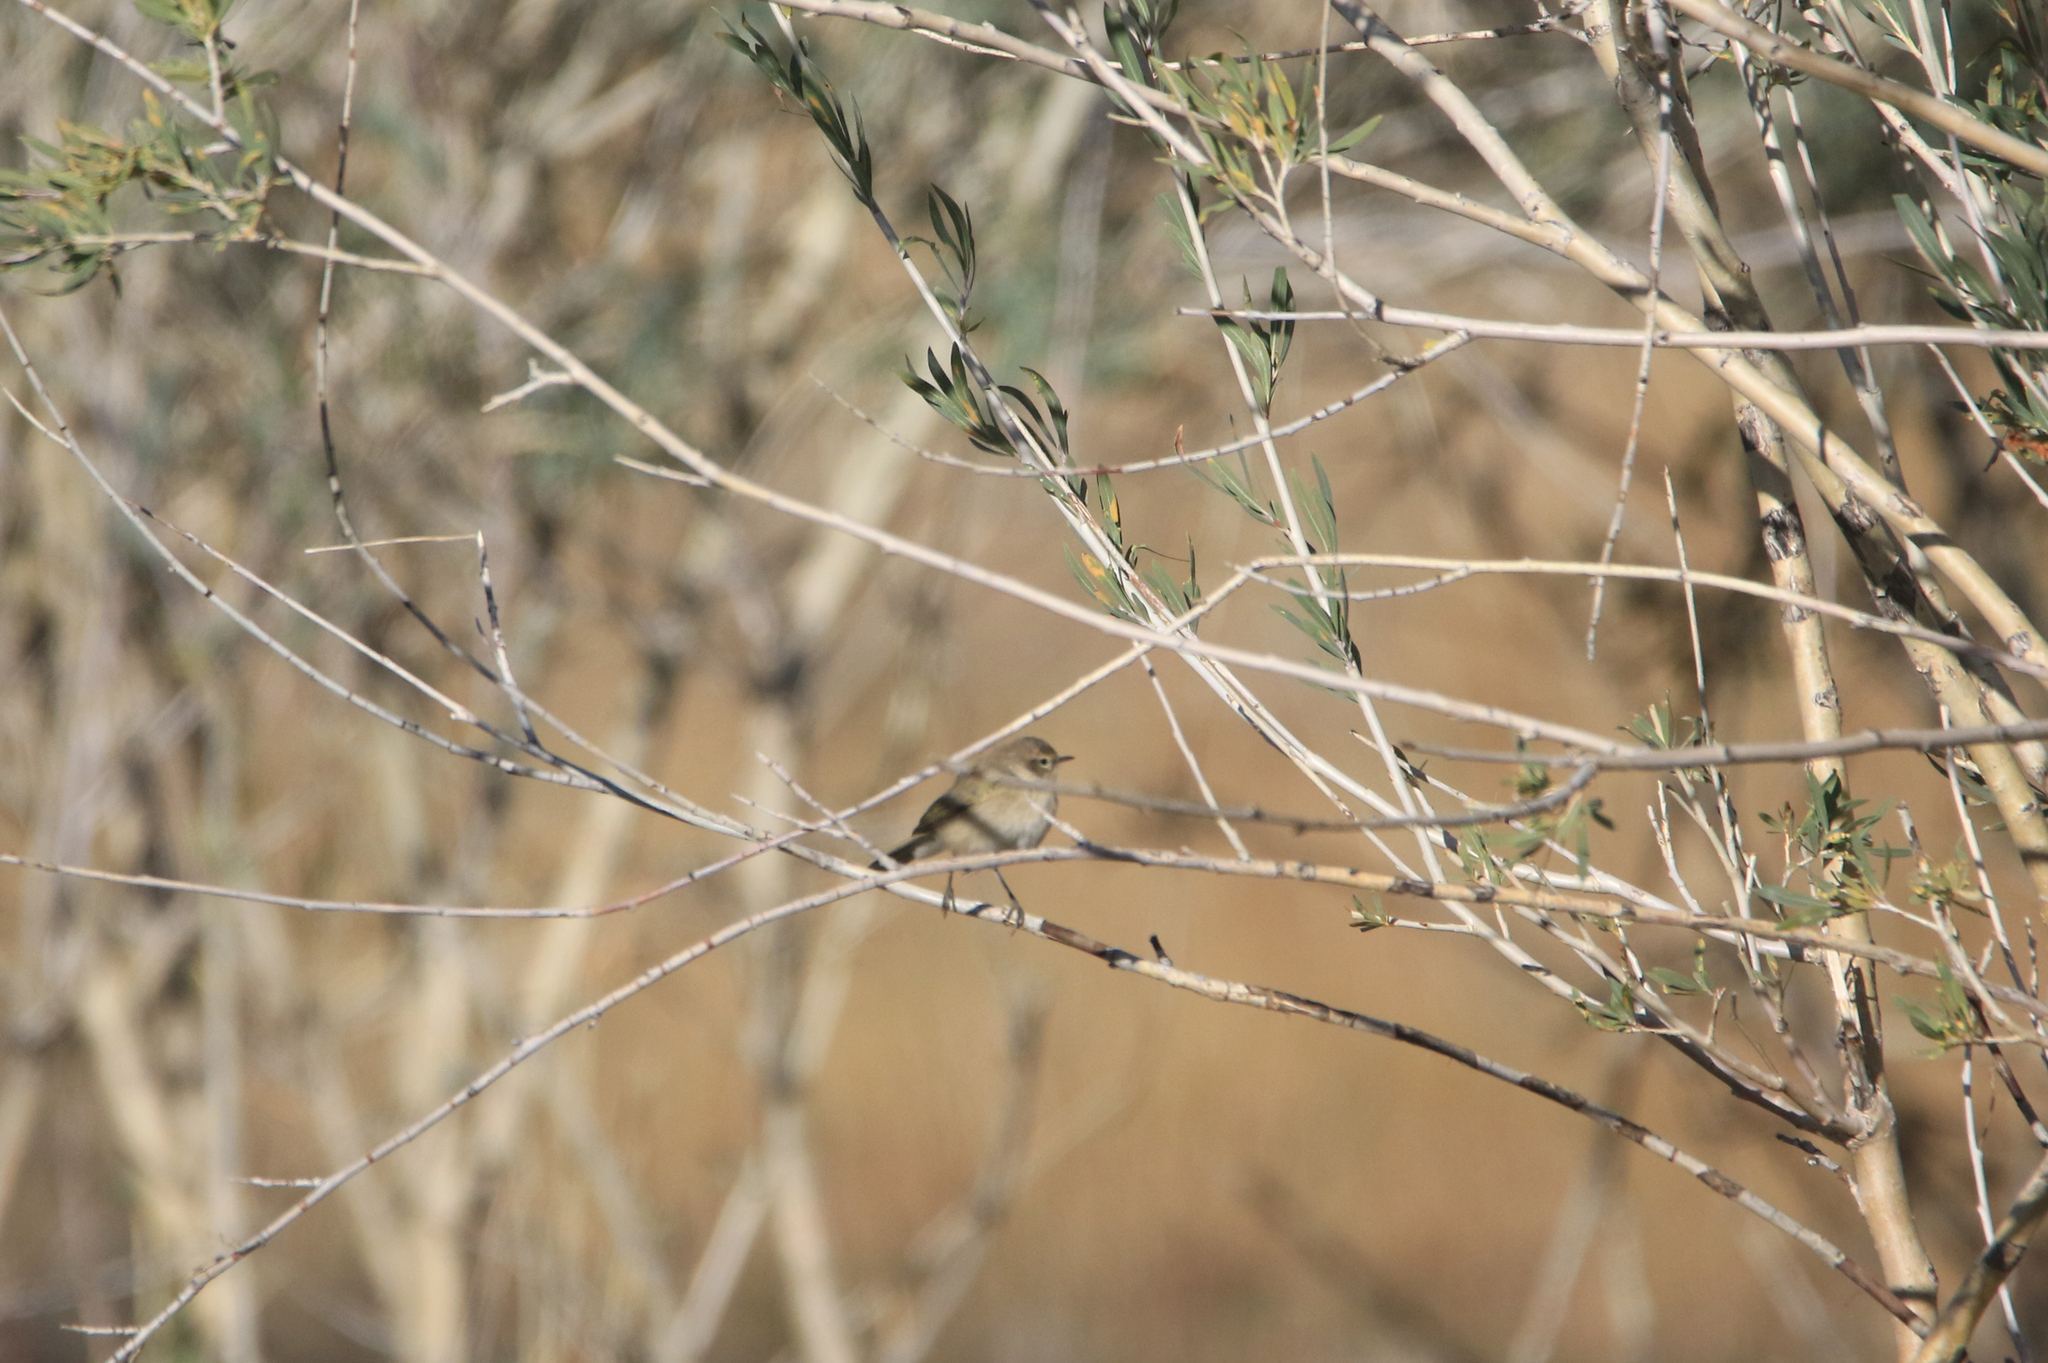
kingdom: Animalia
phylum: Chordata
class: Aves
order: Passeriformes
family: Phylloscopidae
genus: Phylloscopus
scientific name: Phylloscopus collybita
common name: Common chiffchaff
